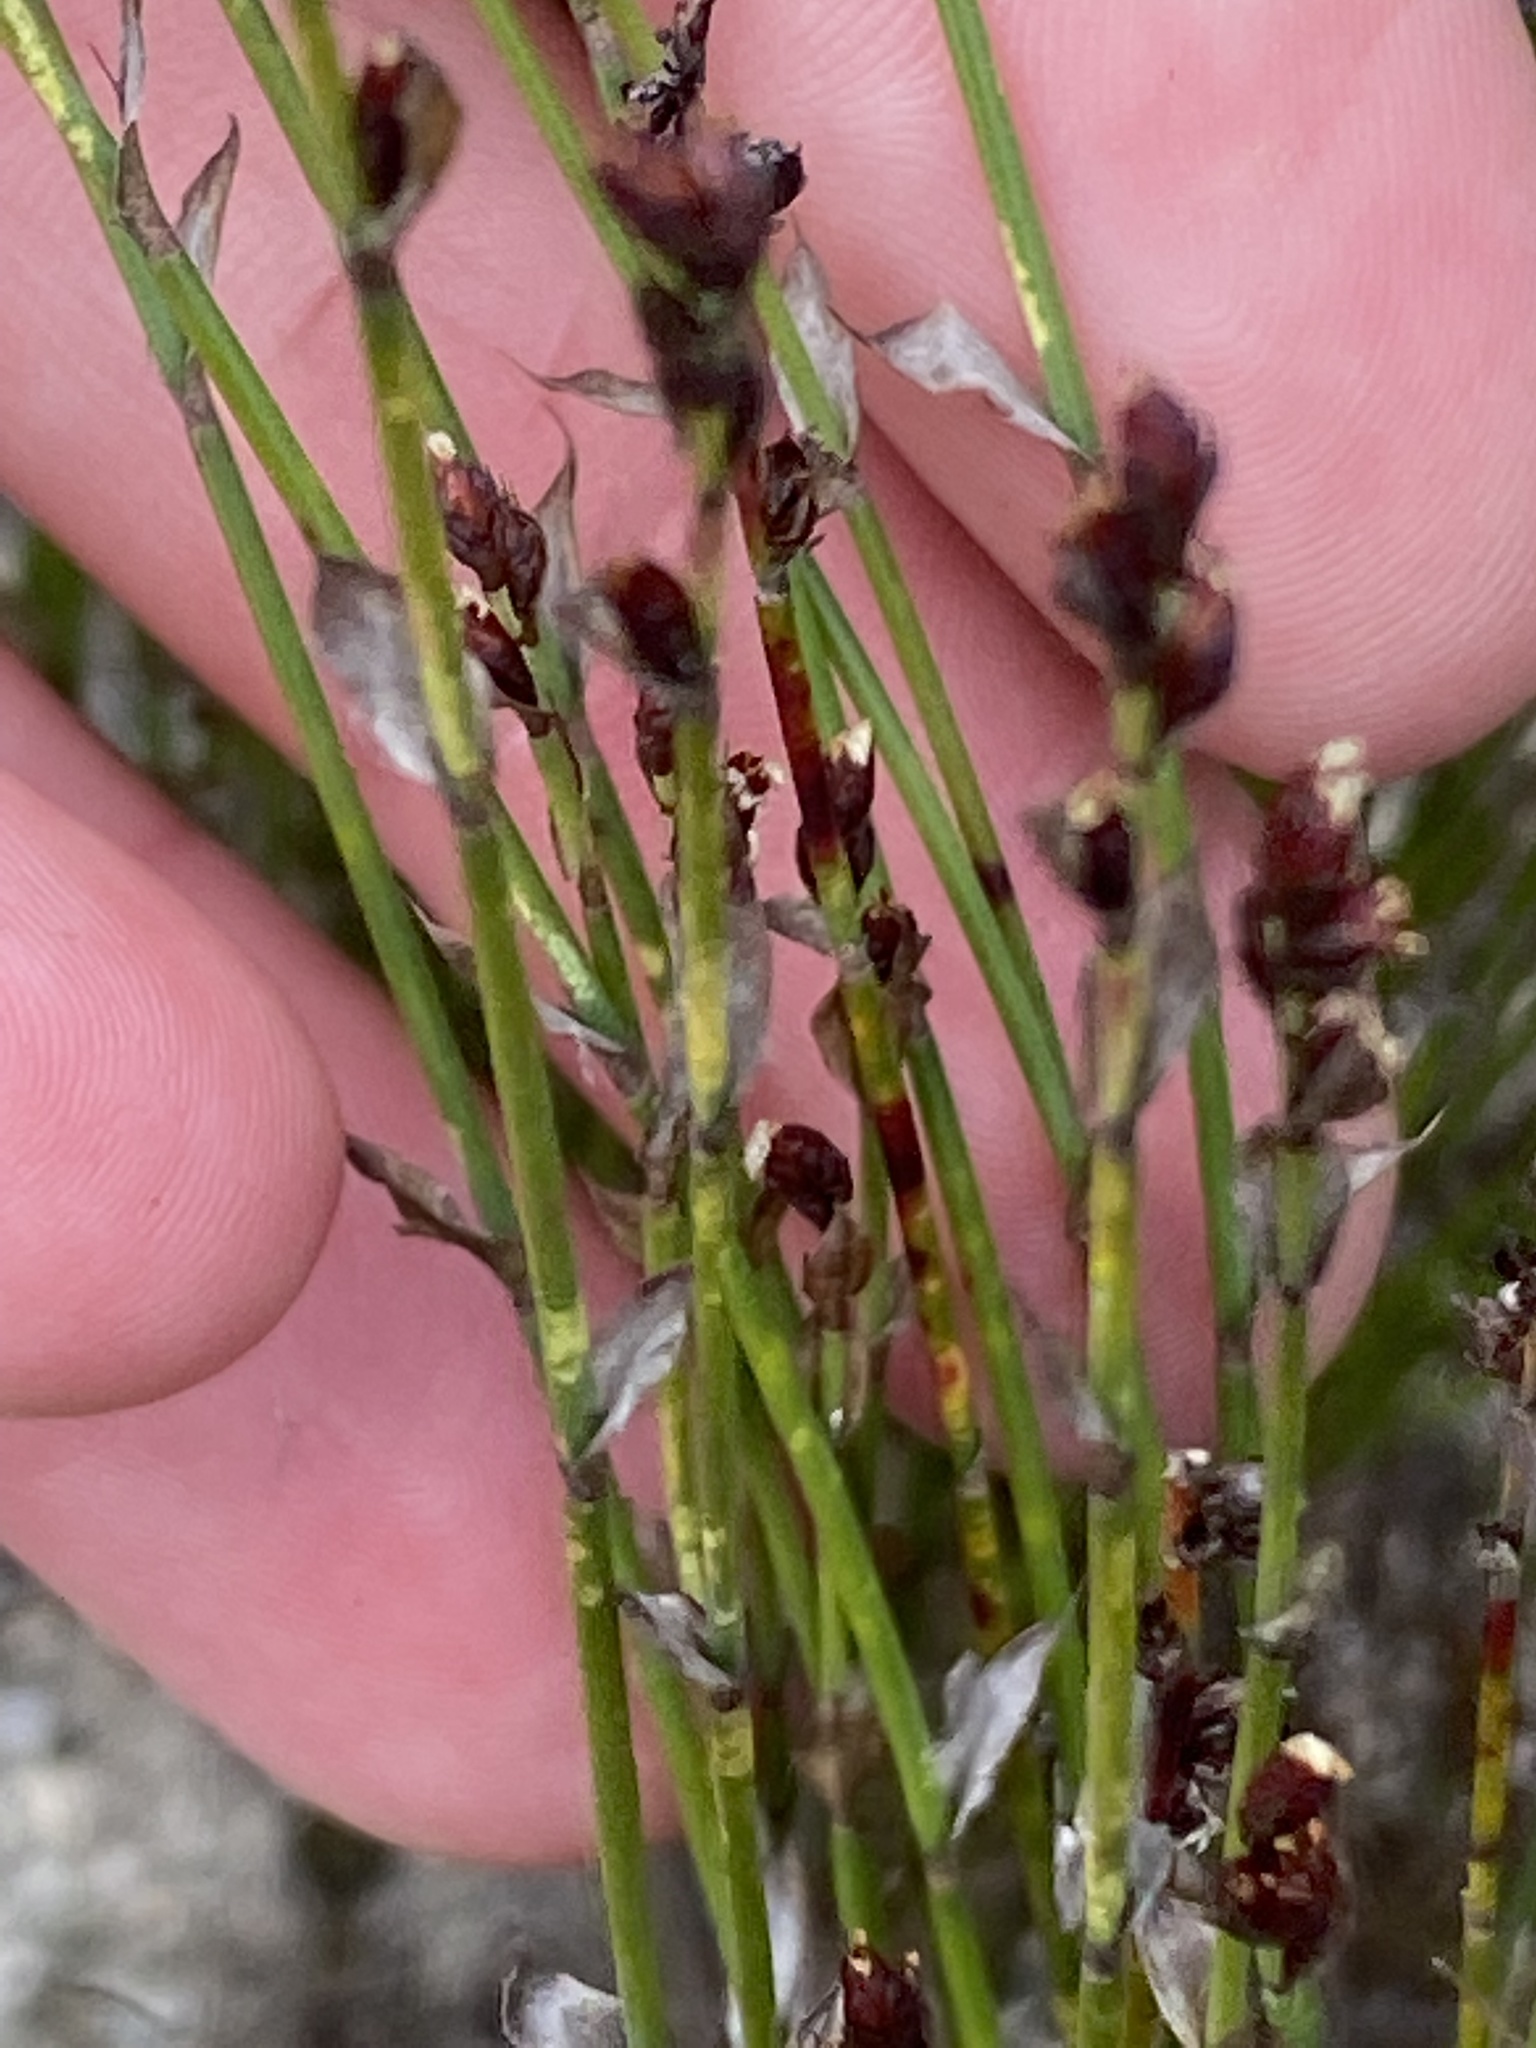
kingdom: Plantae
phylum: Tracheophyta
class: Liliopsida
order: Poales
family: Restionaceae
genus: Elegia
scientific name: Elegia microcarpa
